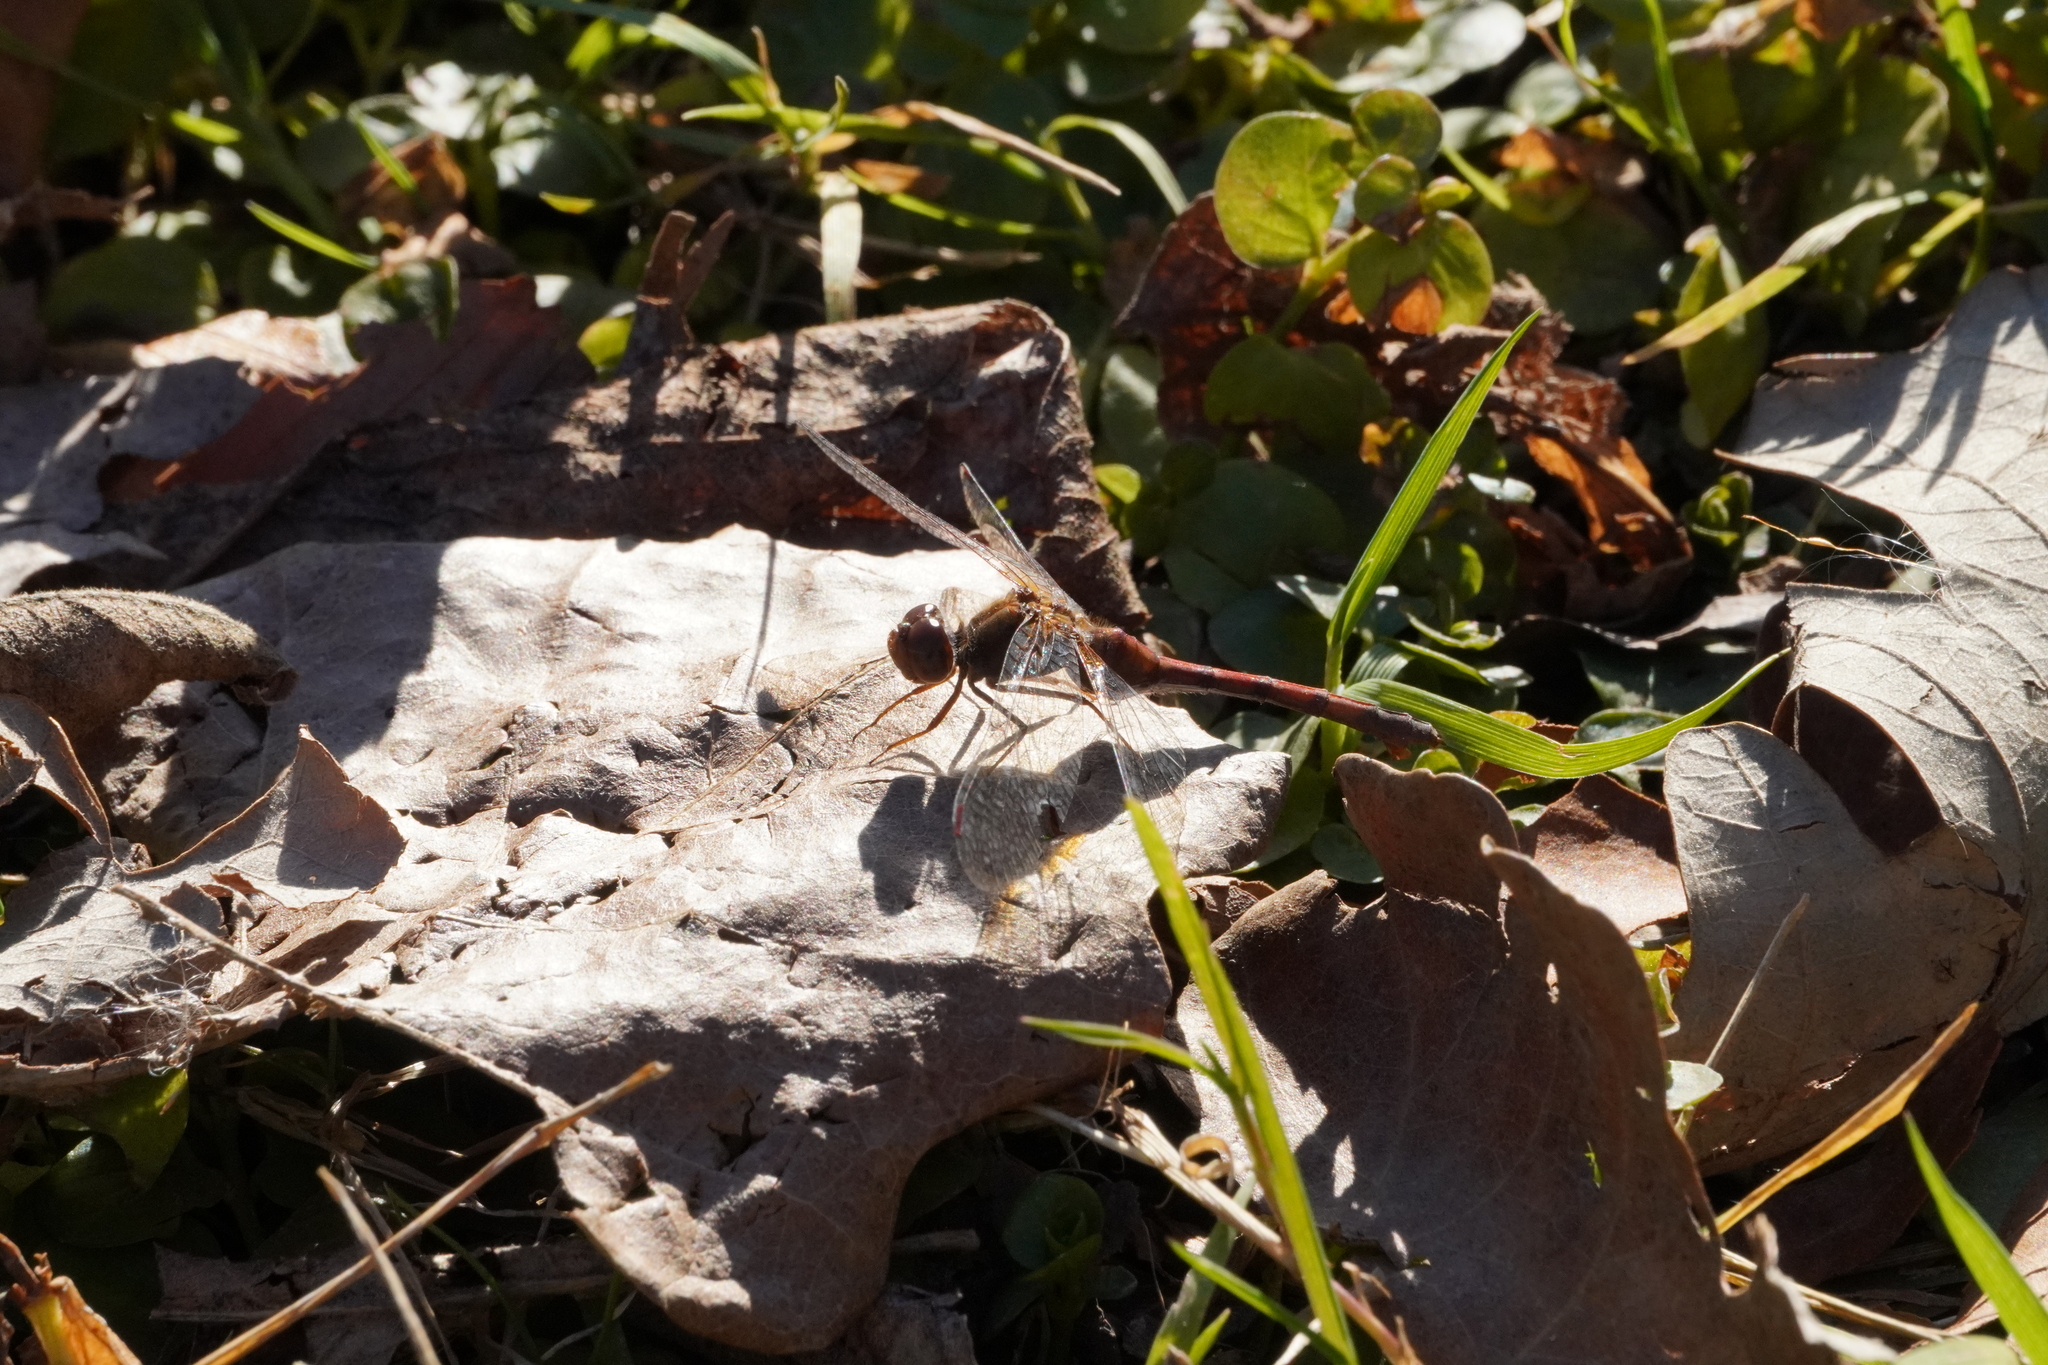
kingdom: Animalia
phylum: Arthropoda
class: Insecta
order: Odonata
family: Libellulidae
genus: Sympetrum
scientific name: Sympetrum vicinum
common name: Autumn meadowhawk
